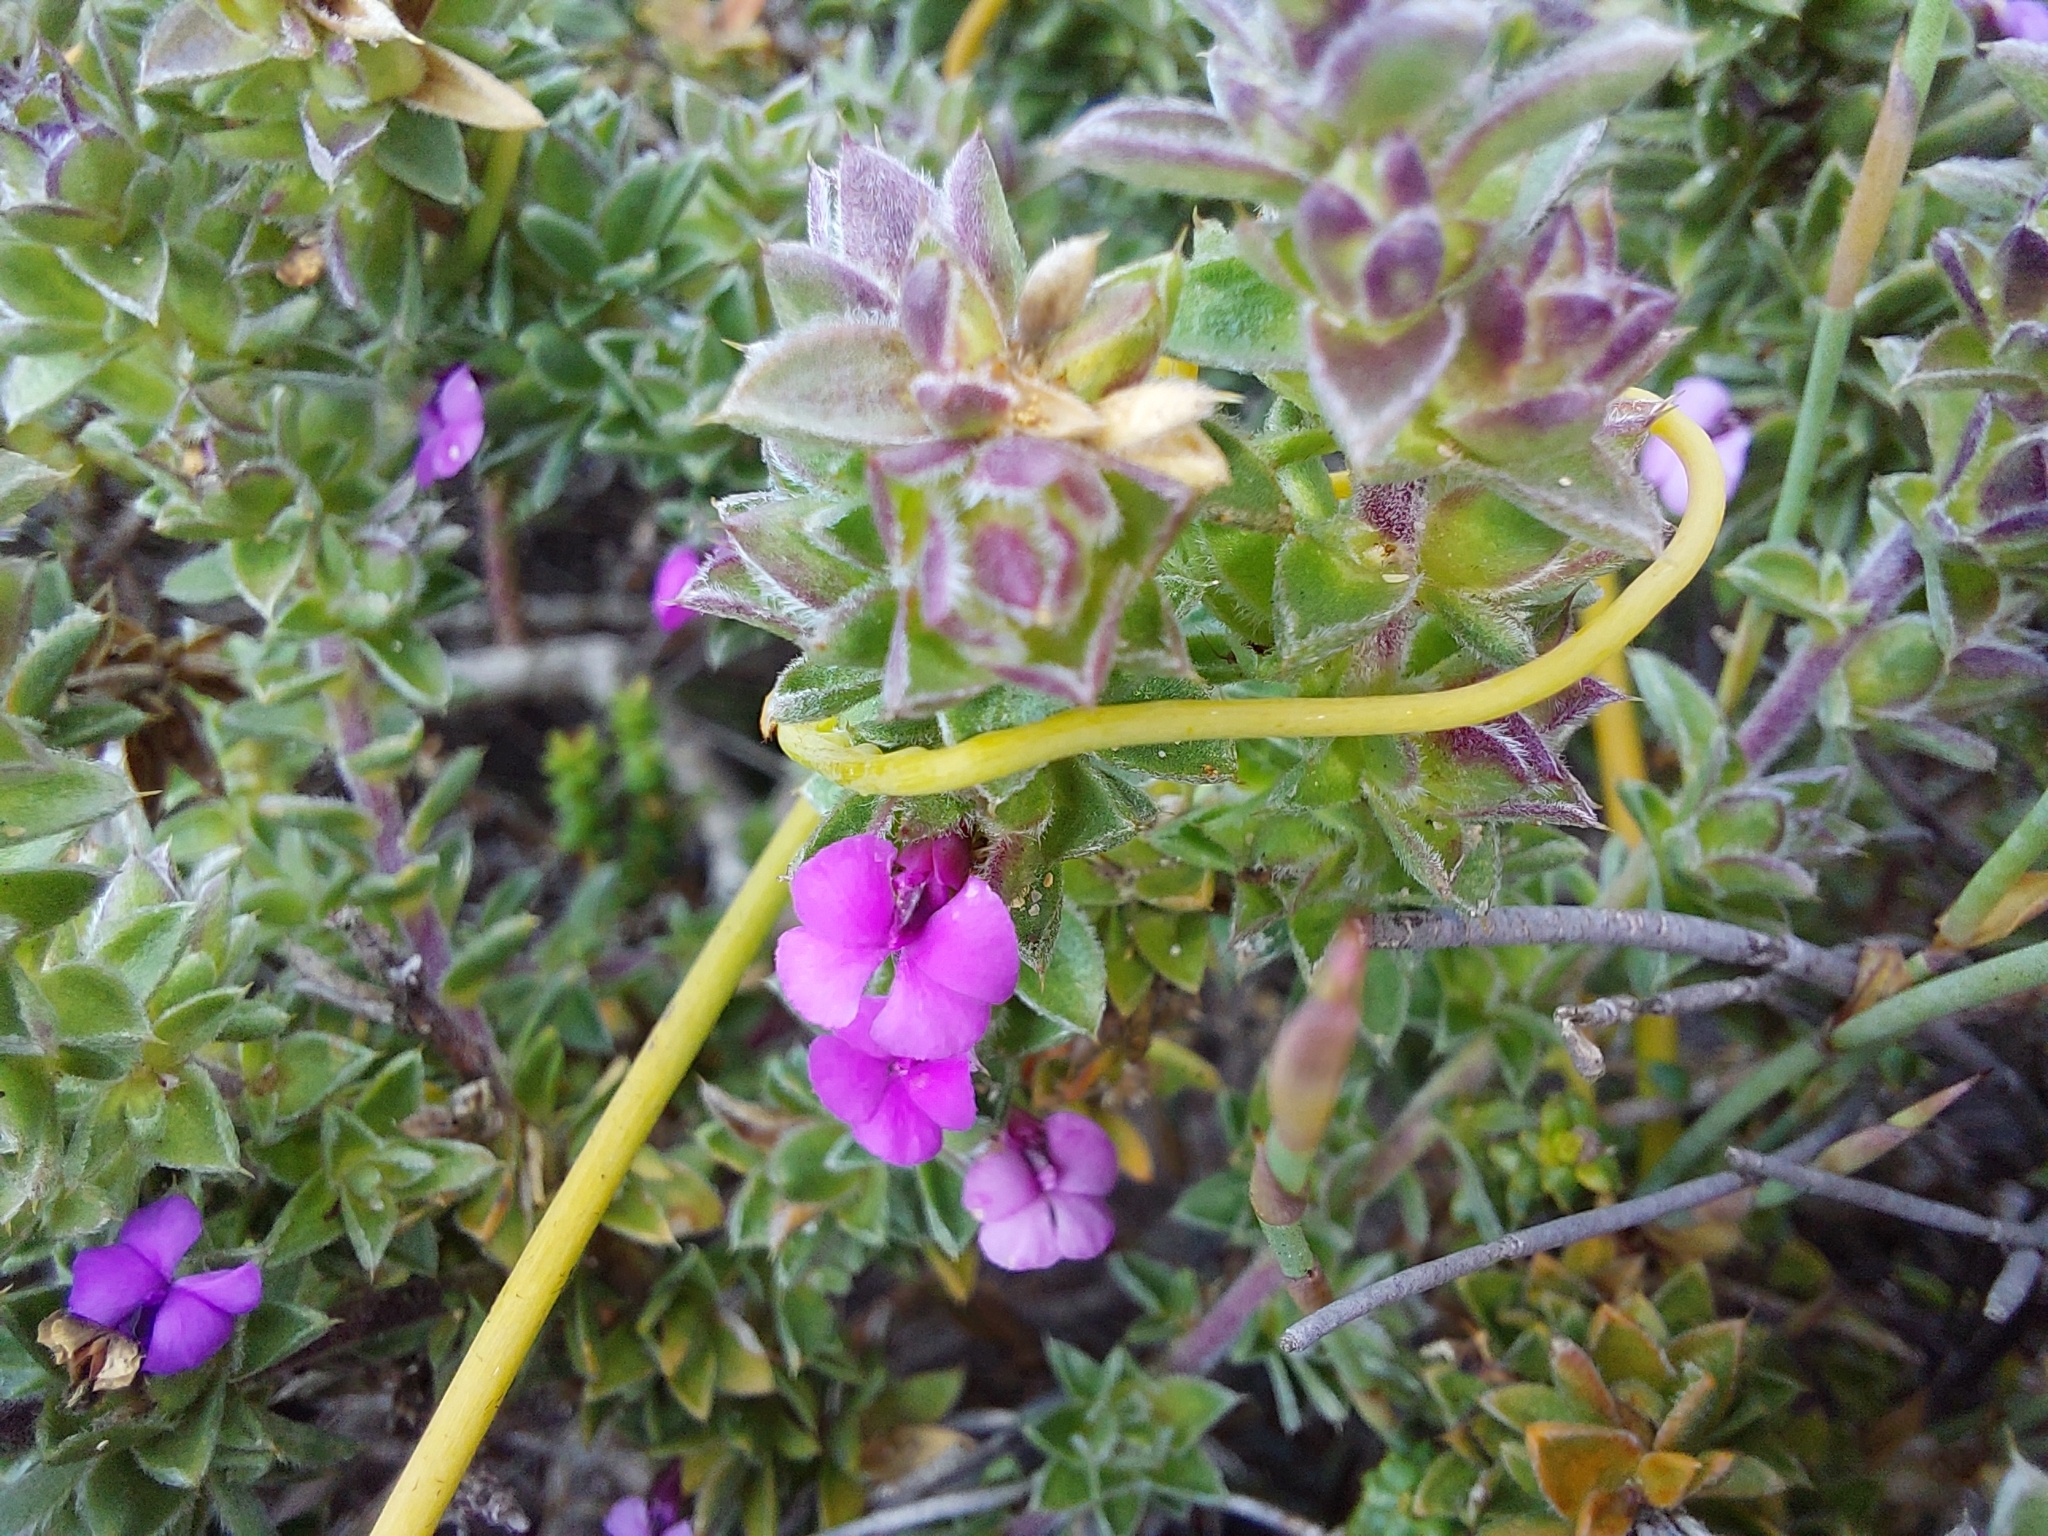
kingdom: Plantae
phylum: Tracheophyta
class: Magnoliopsida
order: Fabales
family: Polygalaceae
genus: Muraltia
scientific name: Muraltia squarrosa
